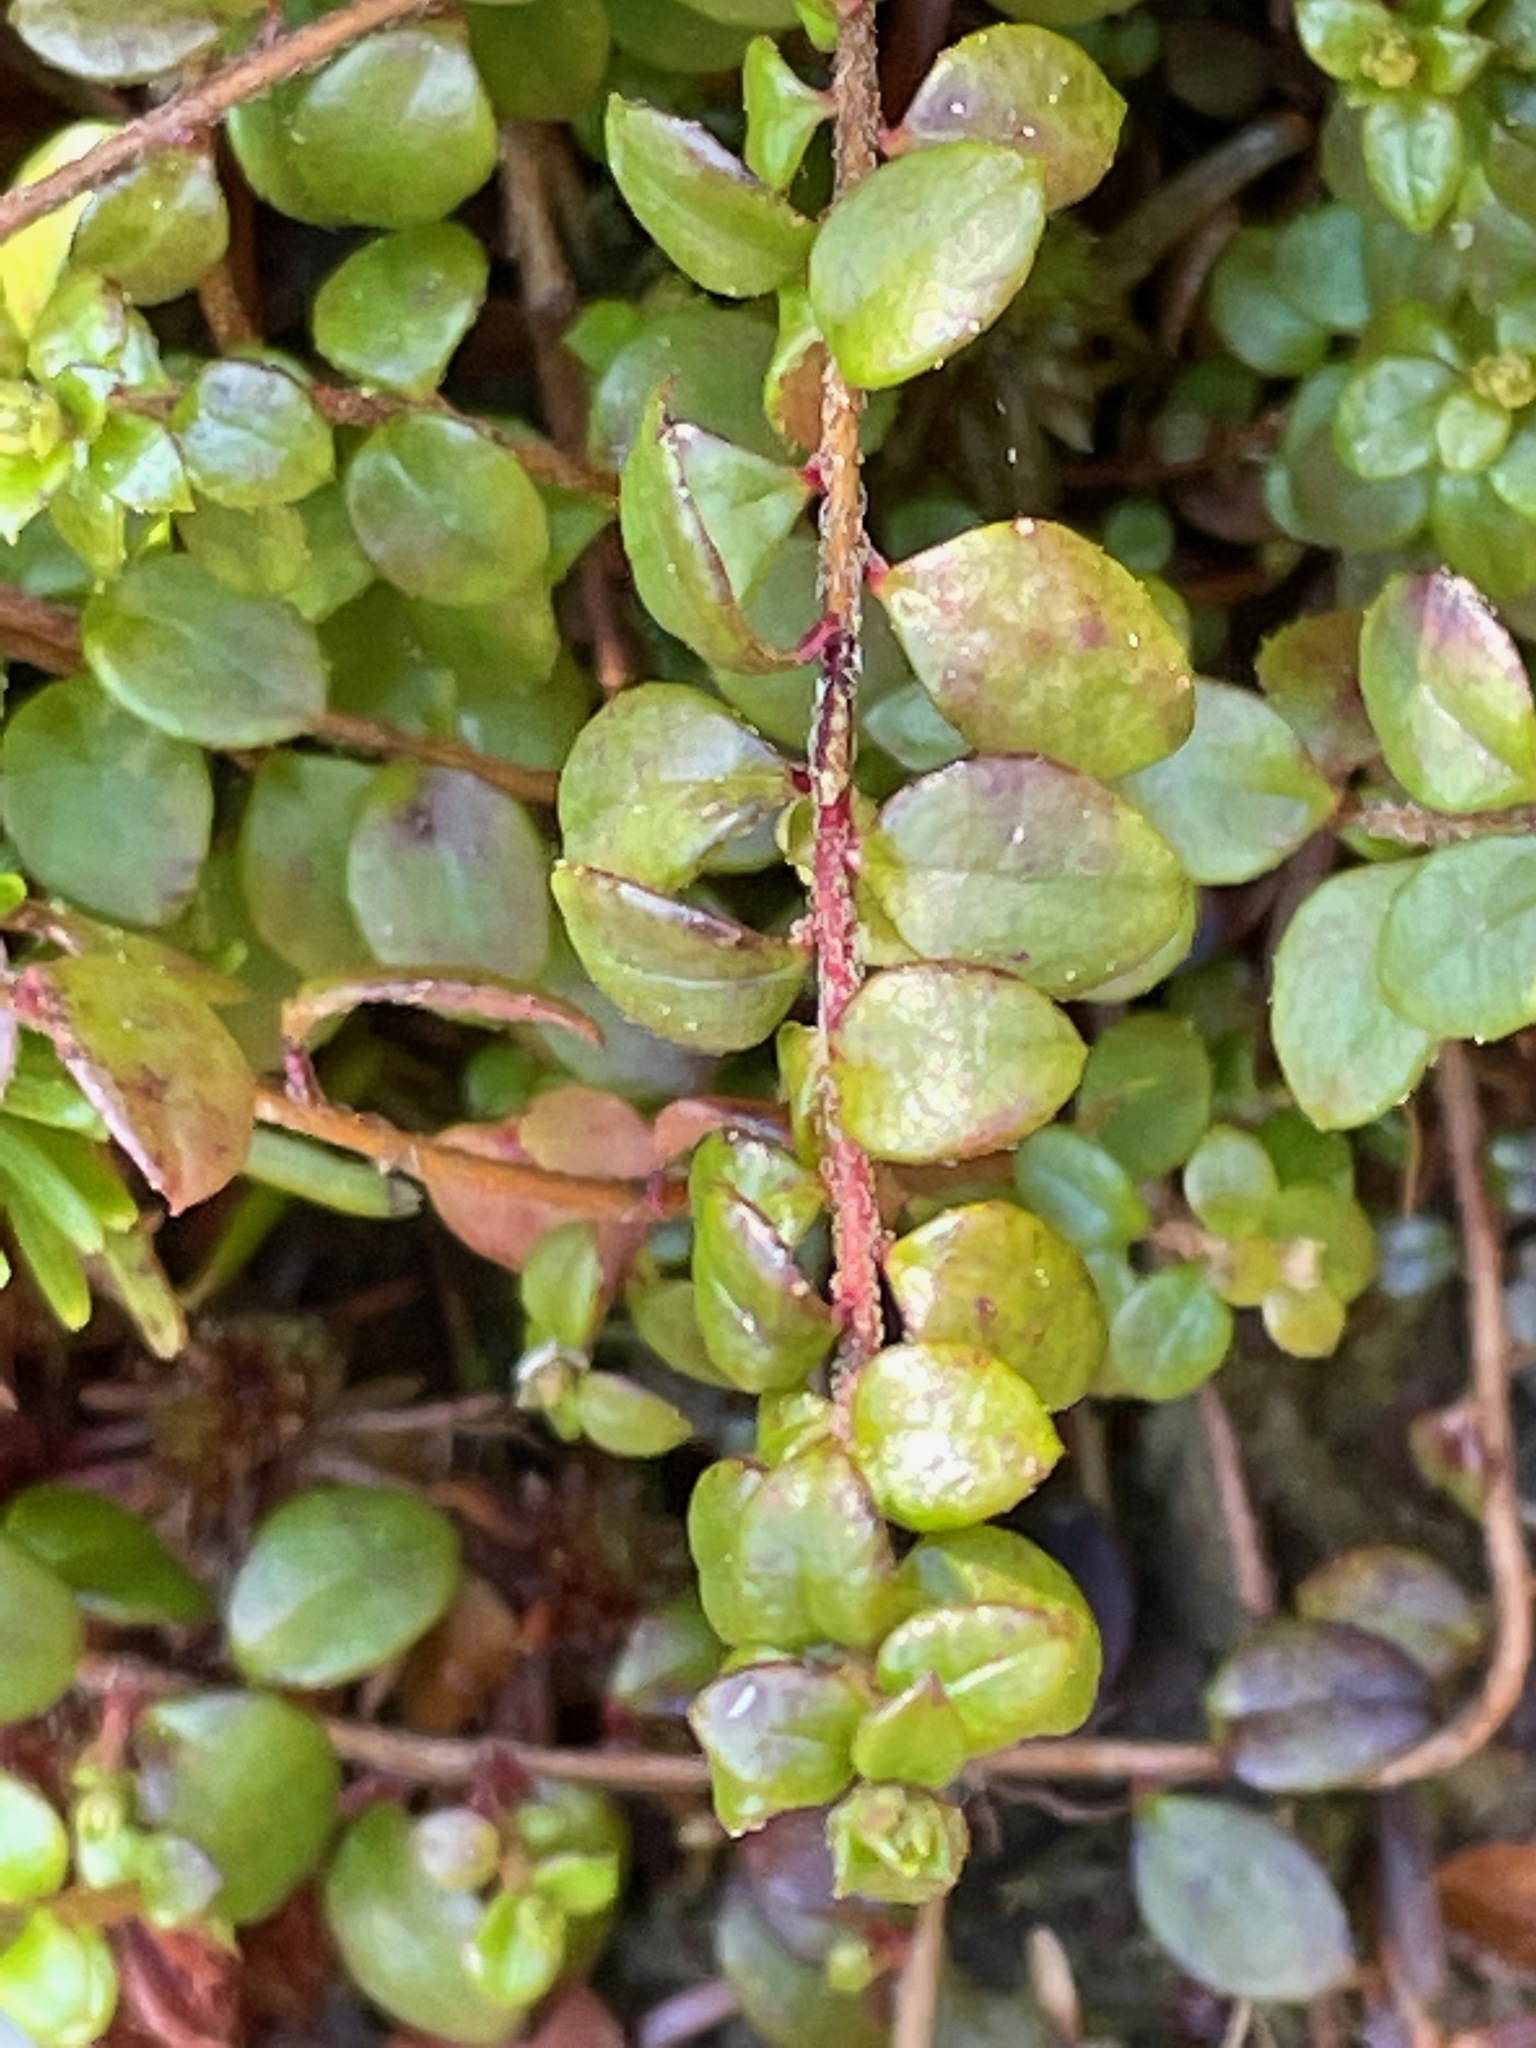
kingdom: Plantae
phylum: Tracheophyta
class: Magnoliopsida
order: Ericales
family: Ericaceae
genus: Gaultheria
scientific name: Gaultheria hispidula
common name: Cancer wintergreen
